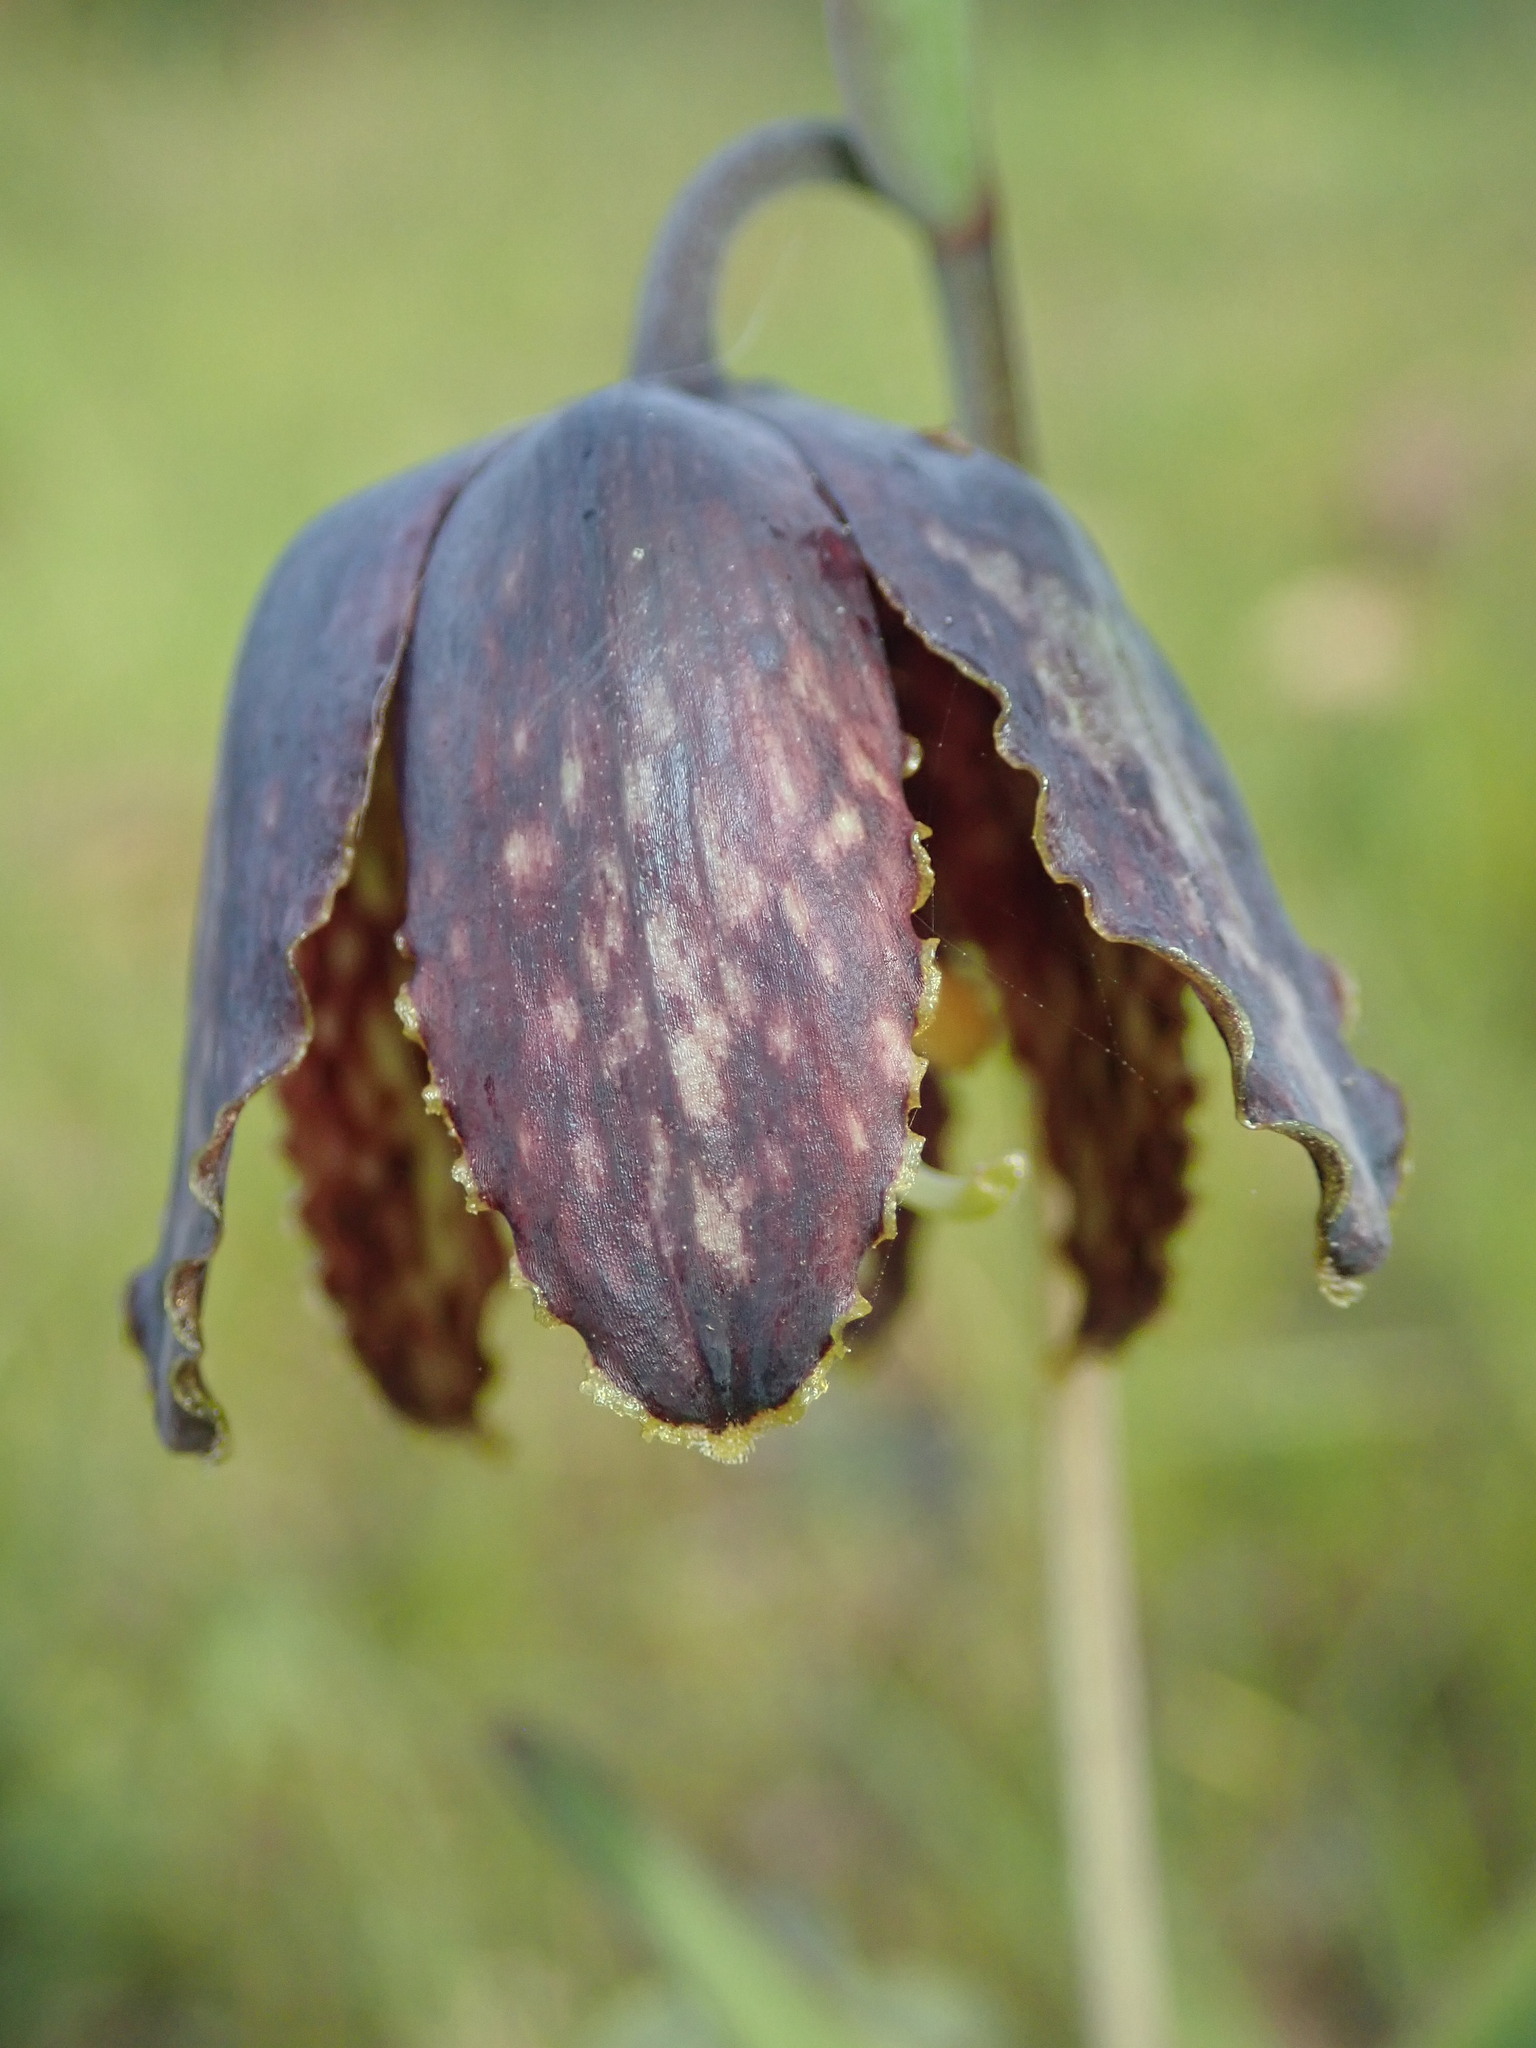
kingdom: Plantae
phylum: Tracheophyta
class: Liliopsida
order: Liliales
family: Liliaceae
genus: Fritillaria
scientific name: Fritillaria affinis
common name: Ojai fritillary
